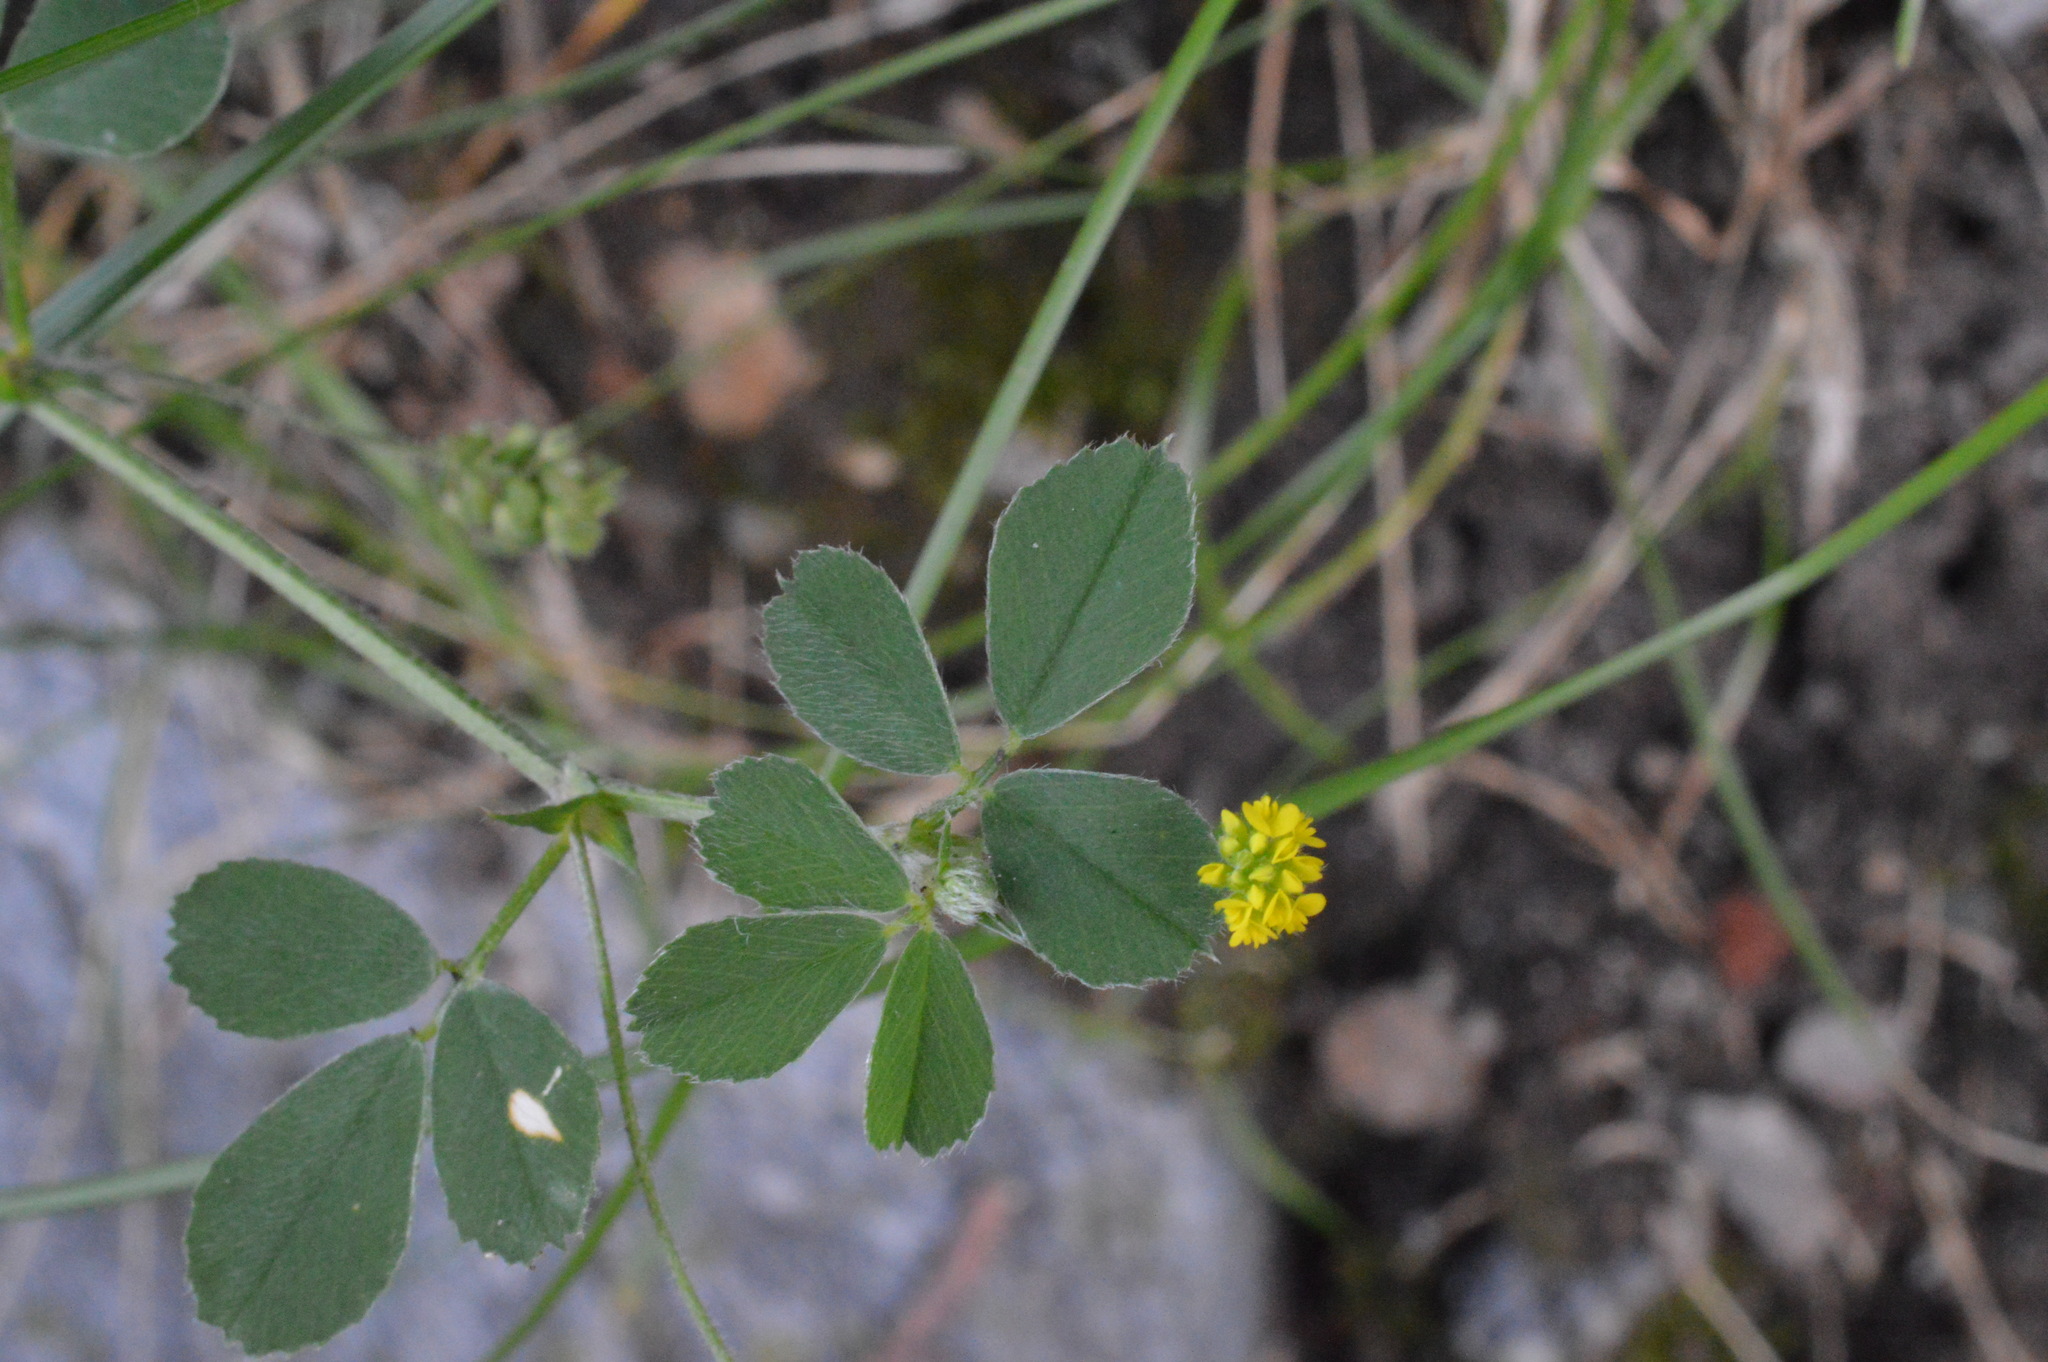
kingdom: Plantae
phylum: Tracheophyta
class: Magnoliopsida
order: Fabales
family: Fabaceae
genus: Medicago
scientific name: Medicago lupulina
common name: Black medick
